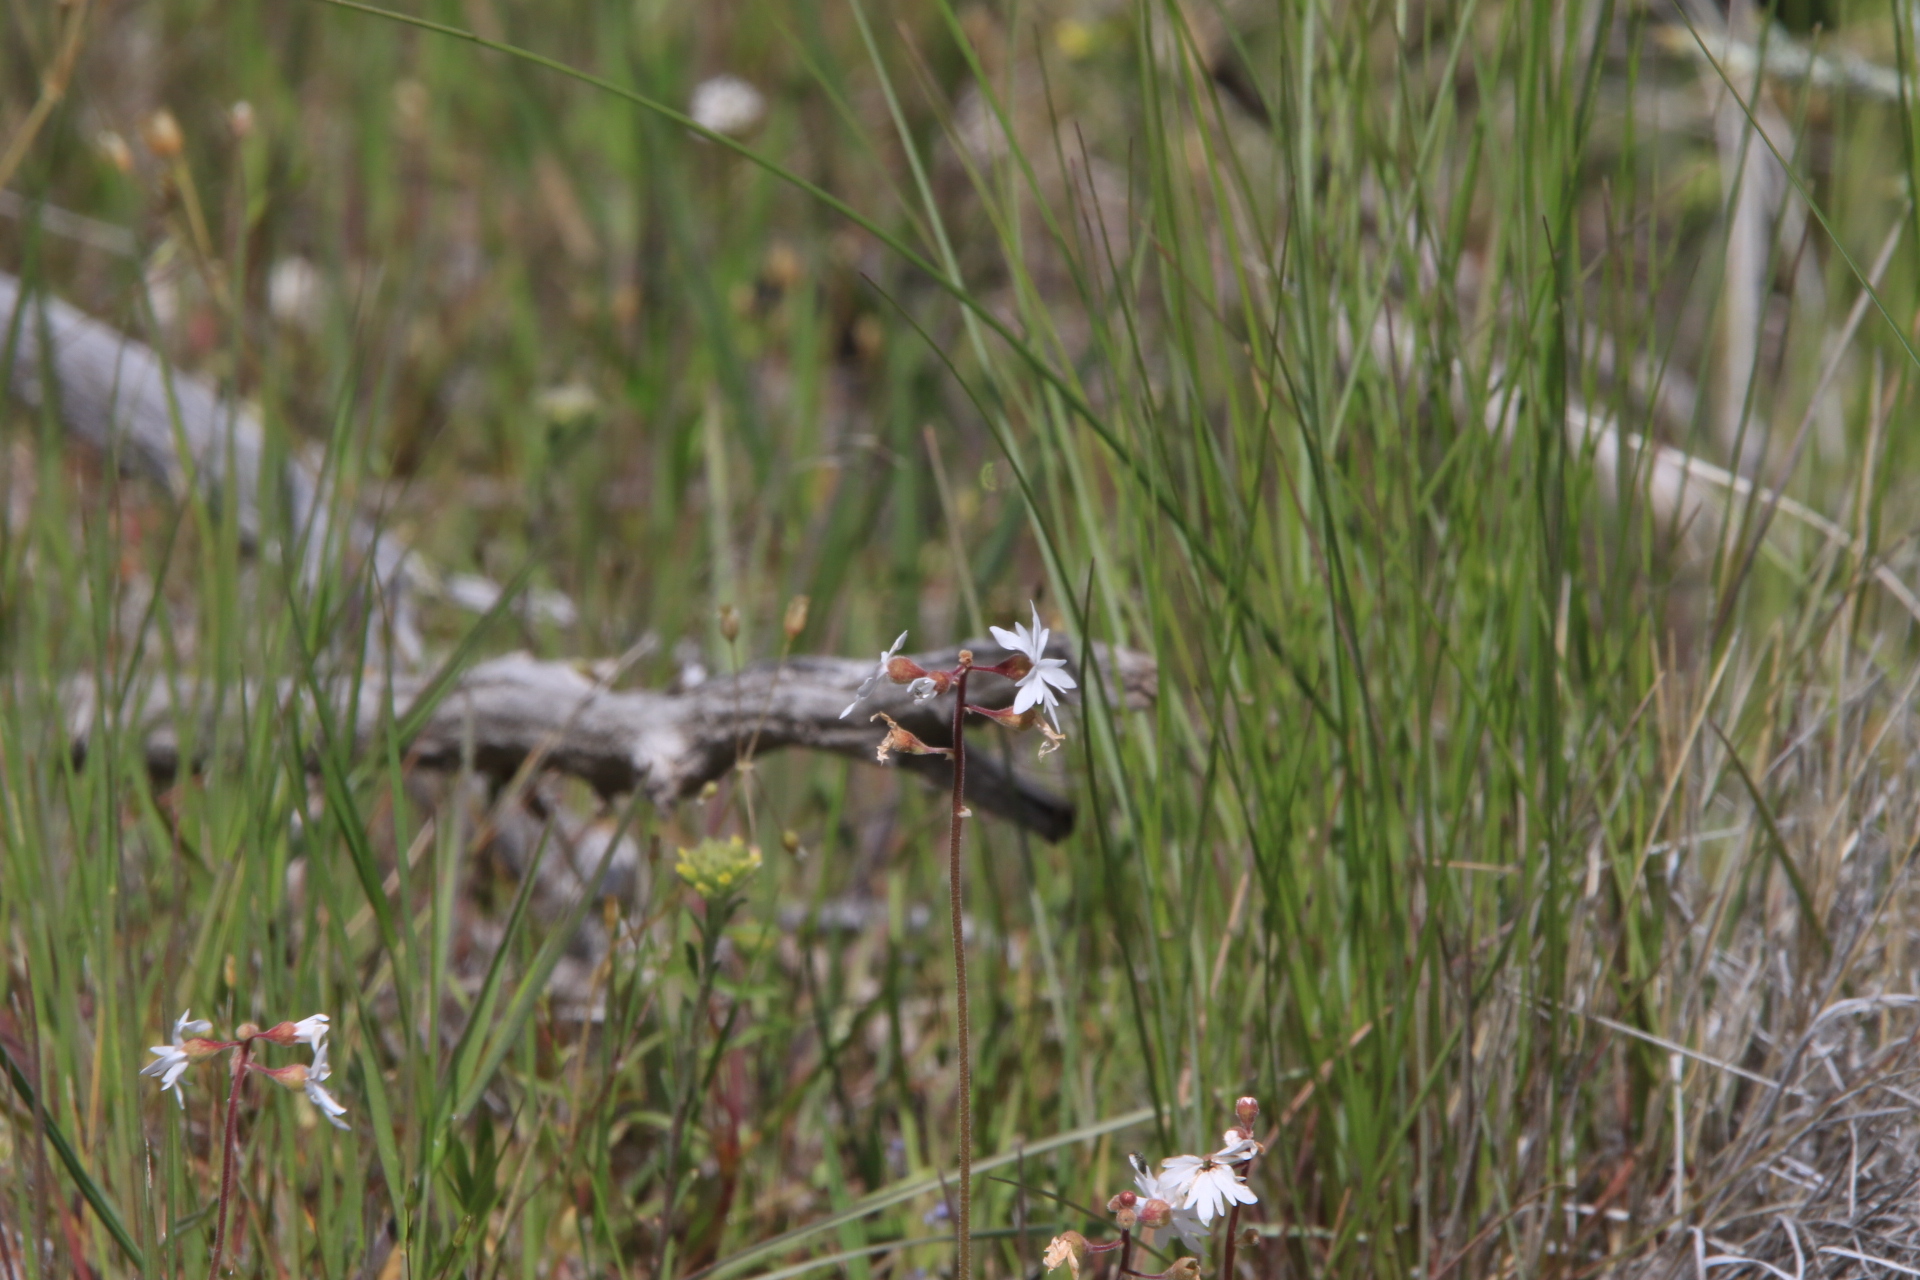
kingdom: Plantae
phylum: Tracheophyta
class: Magnoliopsida
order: Saxifragales
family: Saxifragaceae
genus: Lithophragma
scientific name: Lithophragma parviflorum
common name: Small-flowered fringe-cup
